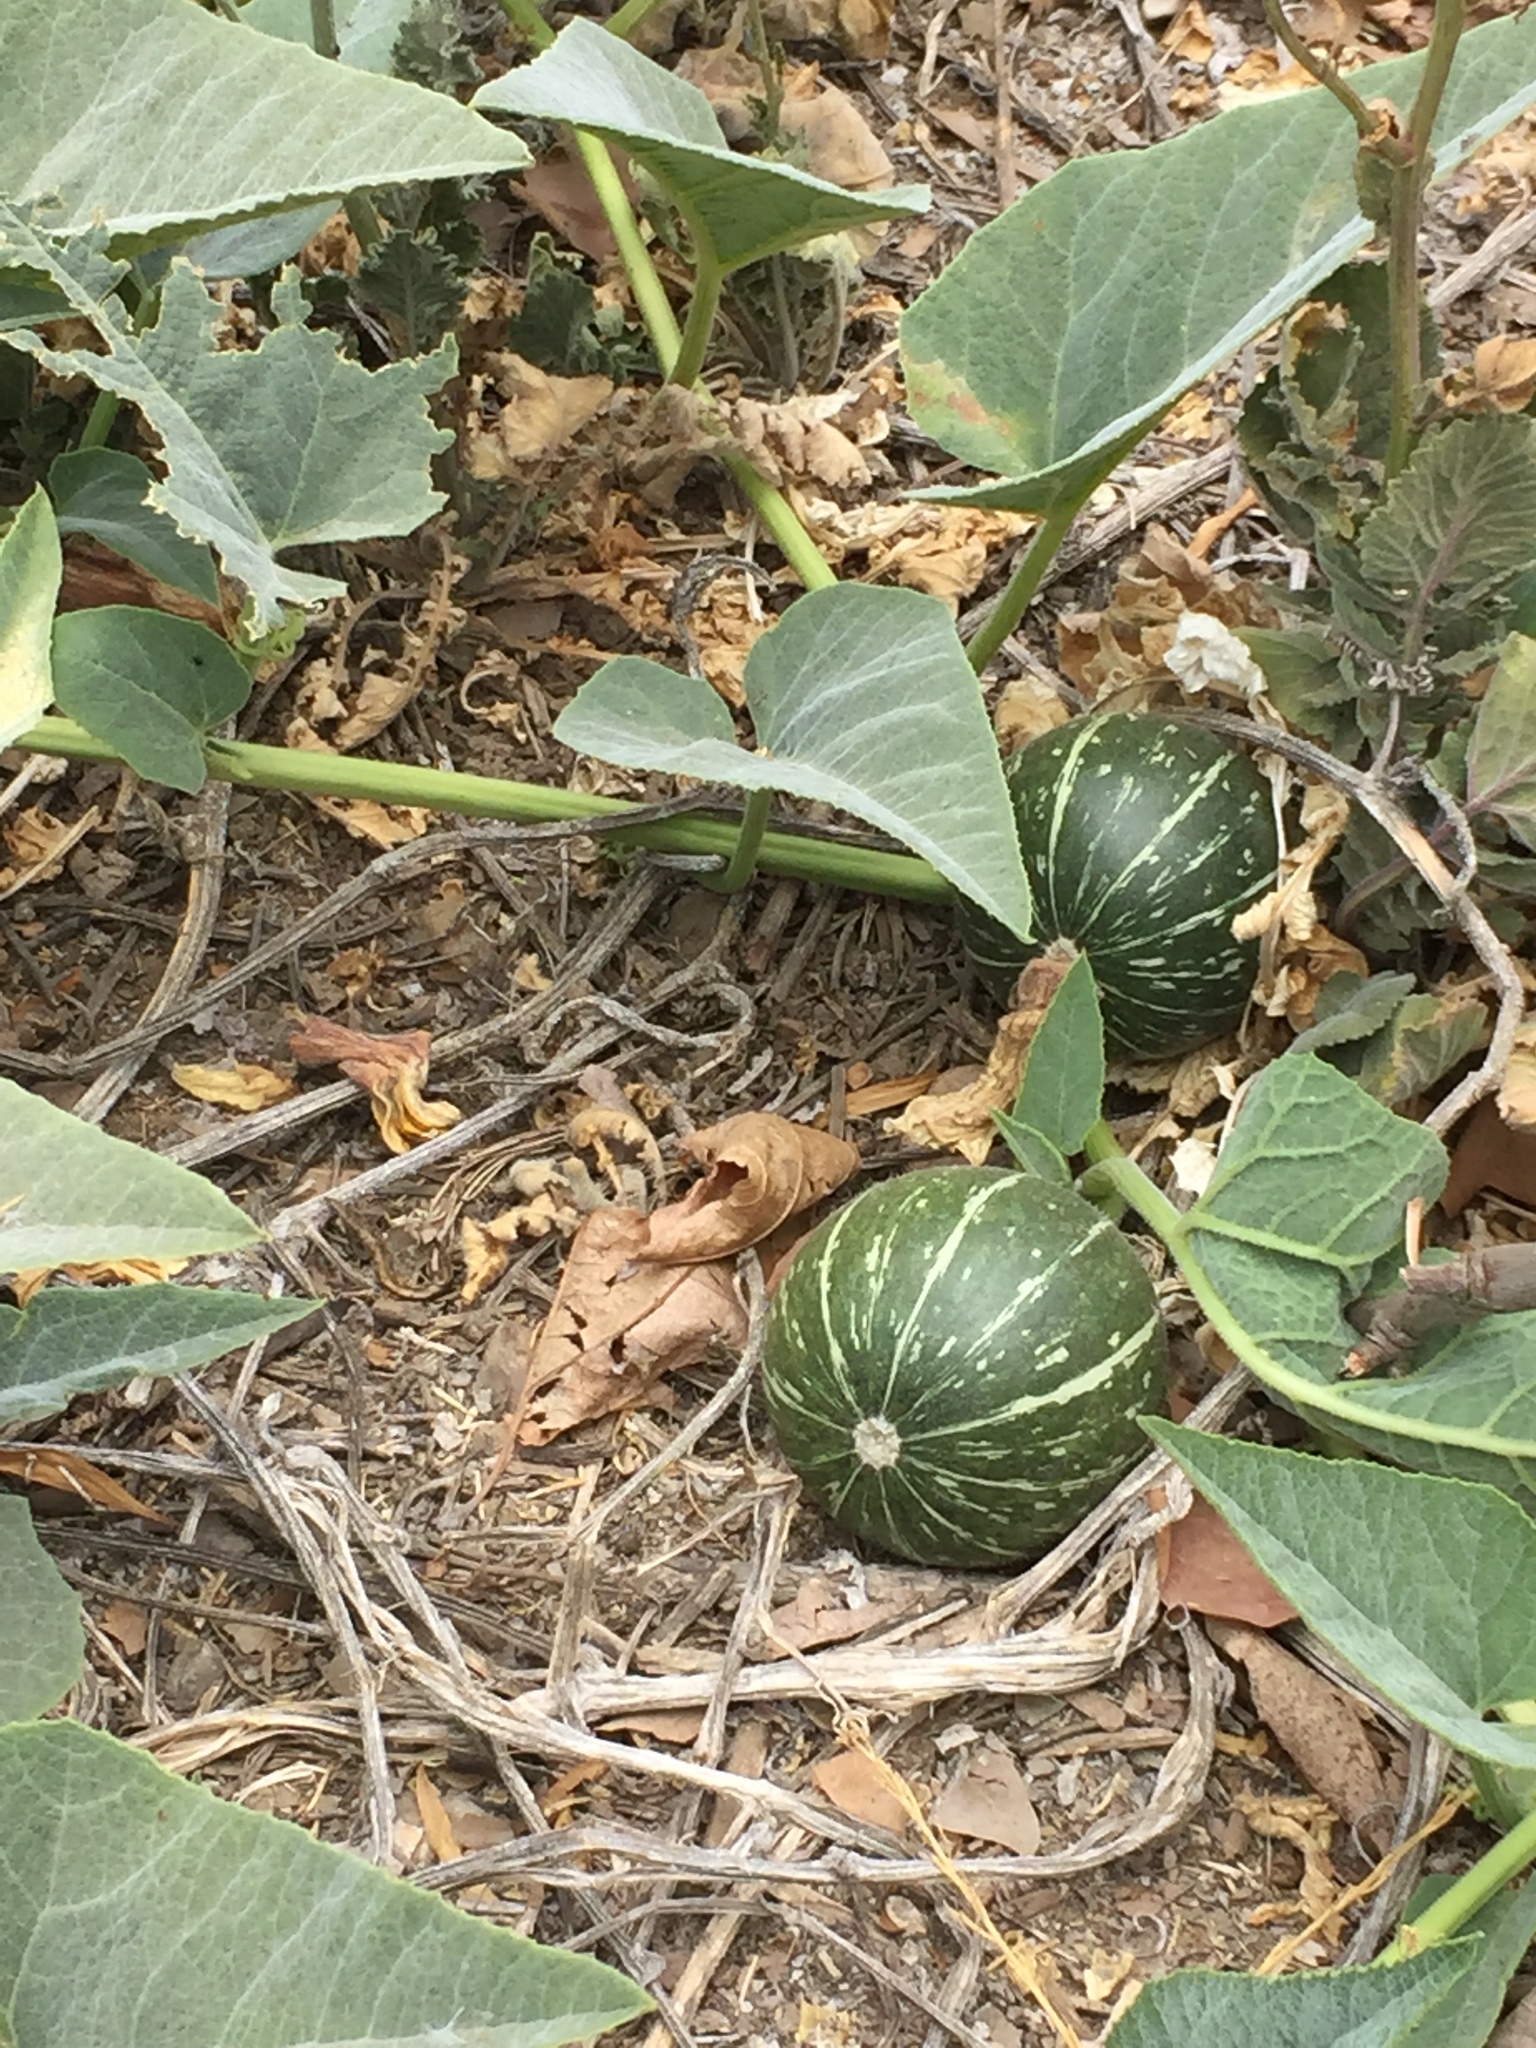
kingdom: Plantae
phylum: Tracheophyta
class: Magnoliopsida
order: Cucurbitales
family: Cucurbitaceae
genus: Cucurbita
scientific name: Cucurbita foetidissima
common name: Buffalo gourd
